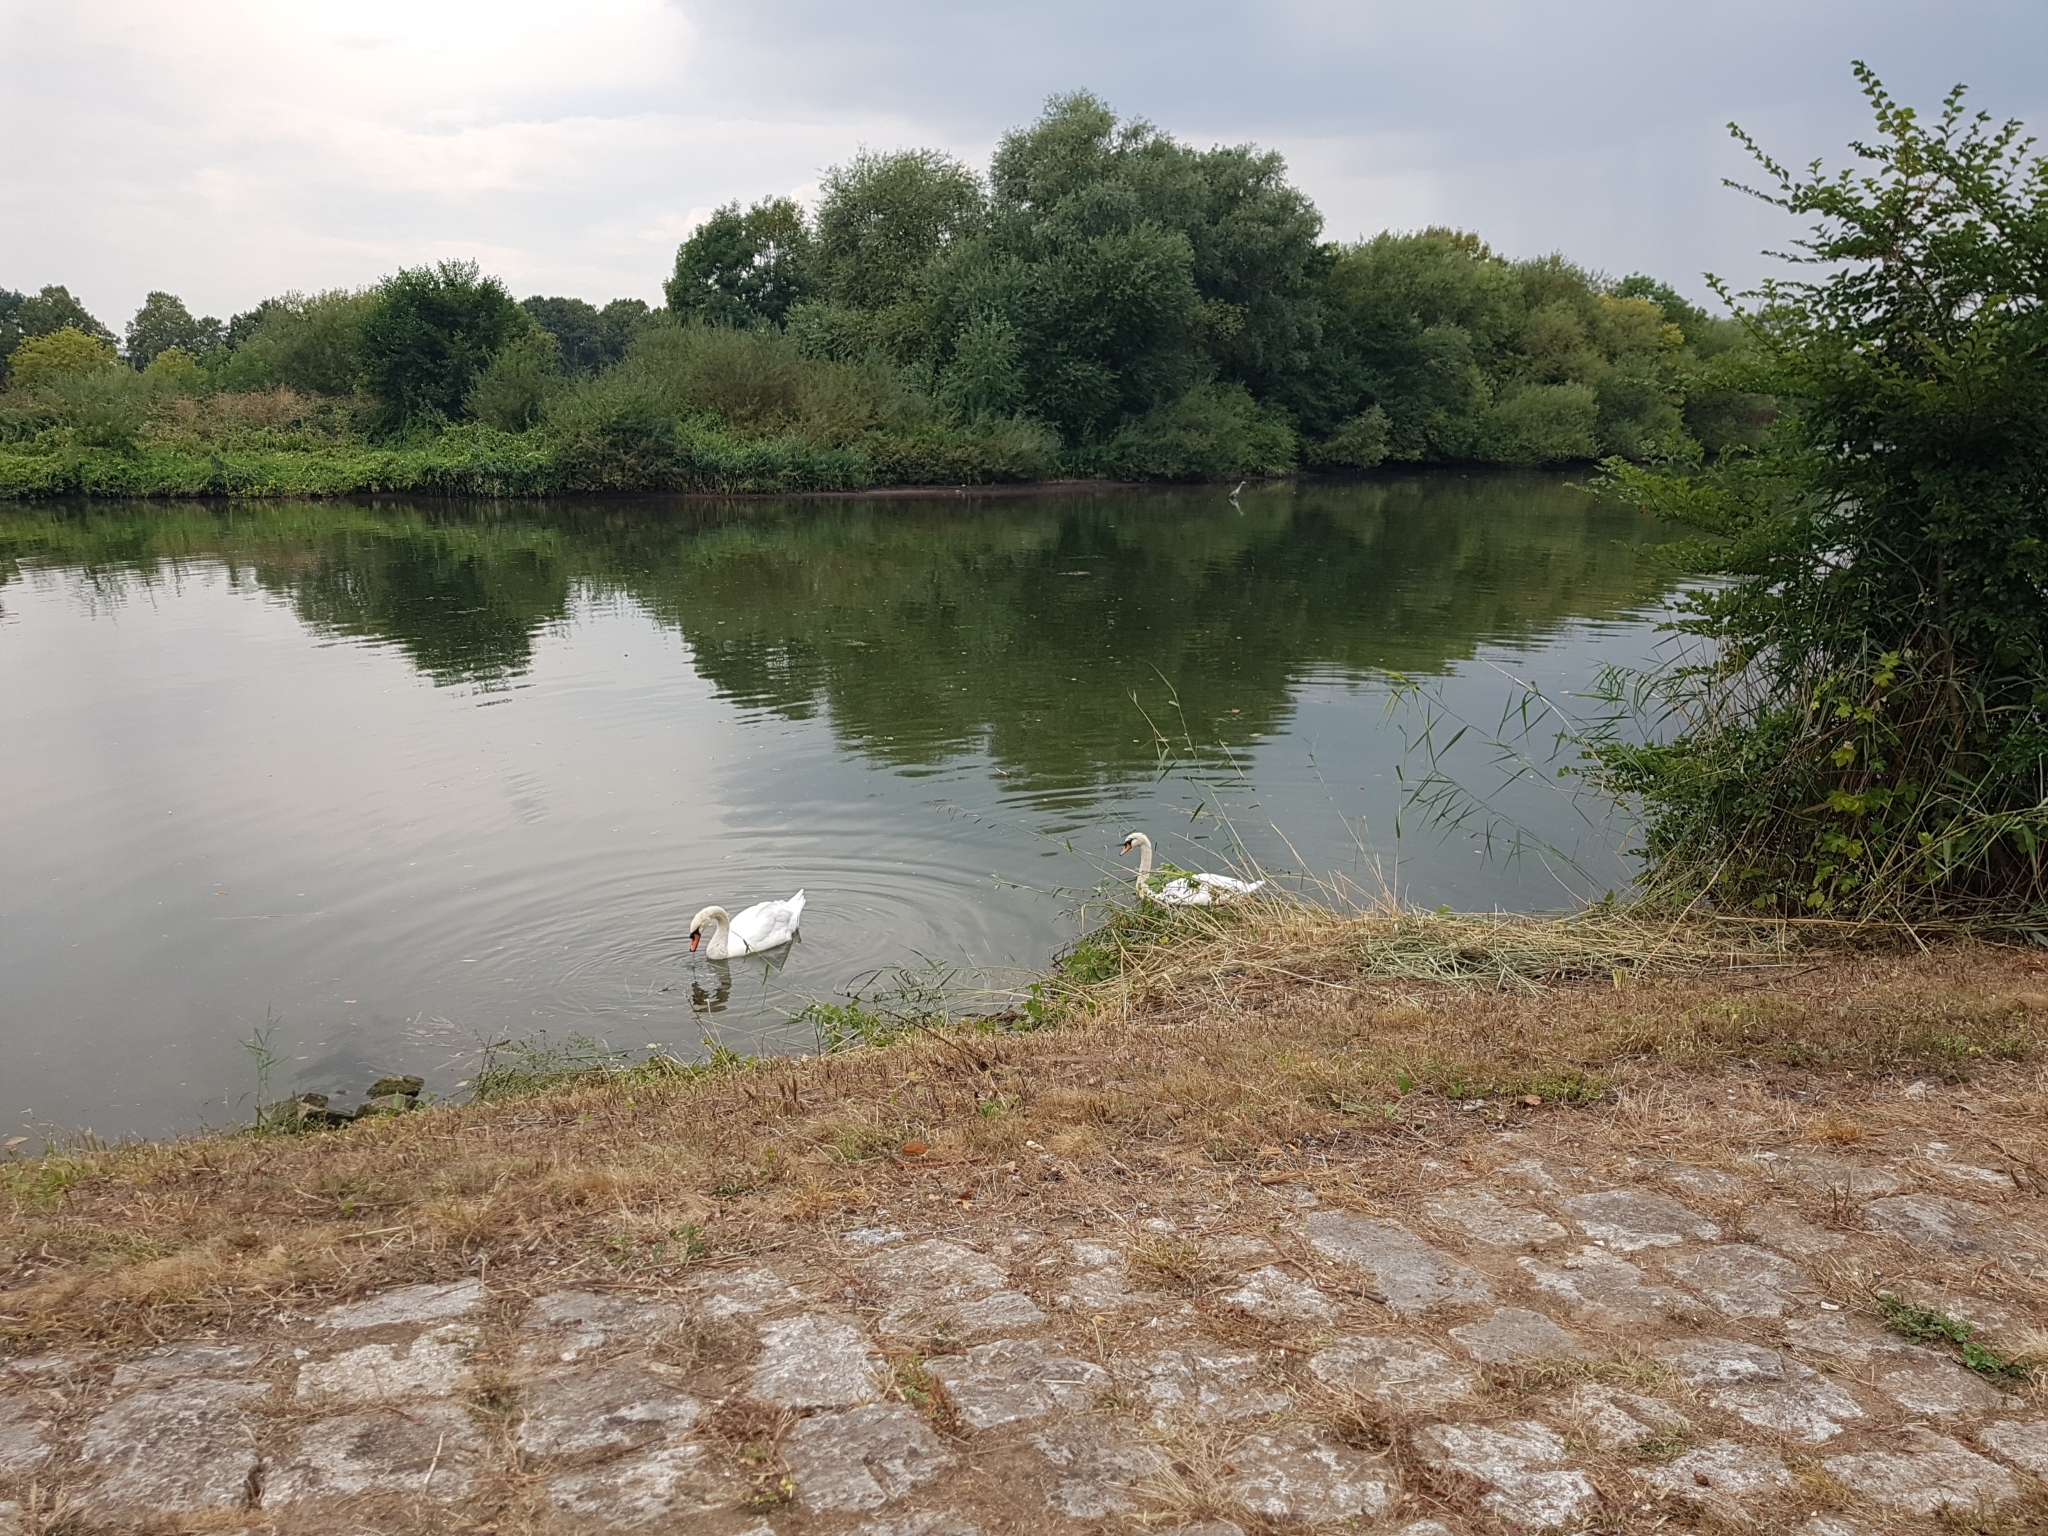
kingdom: Animalia
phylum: Chordata
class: Aves
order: Anseriformes
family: Anatidae
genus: Cygnus
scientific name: Cygnus olor
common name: Mute swan
